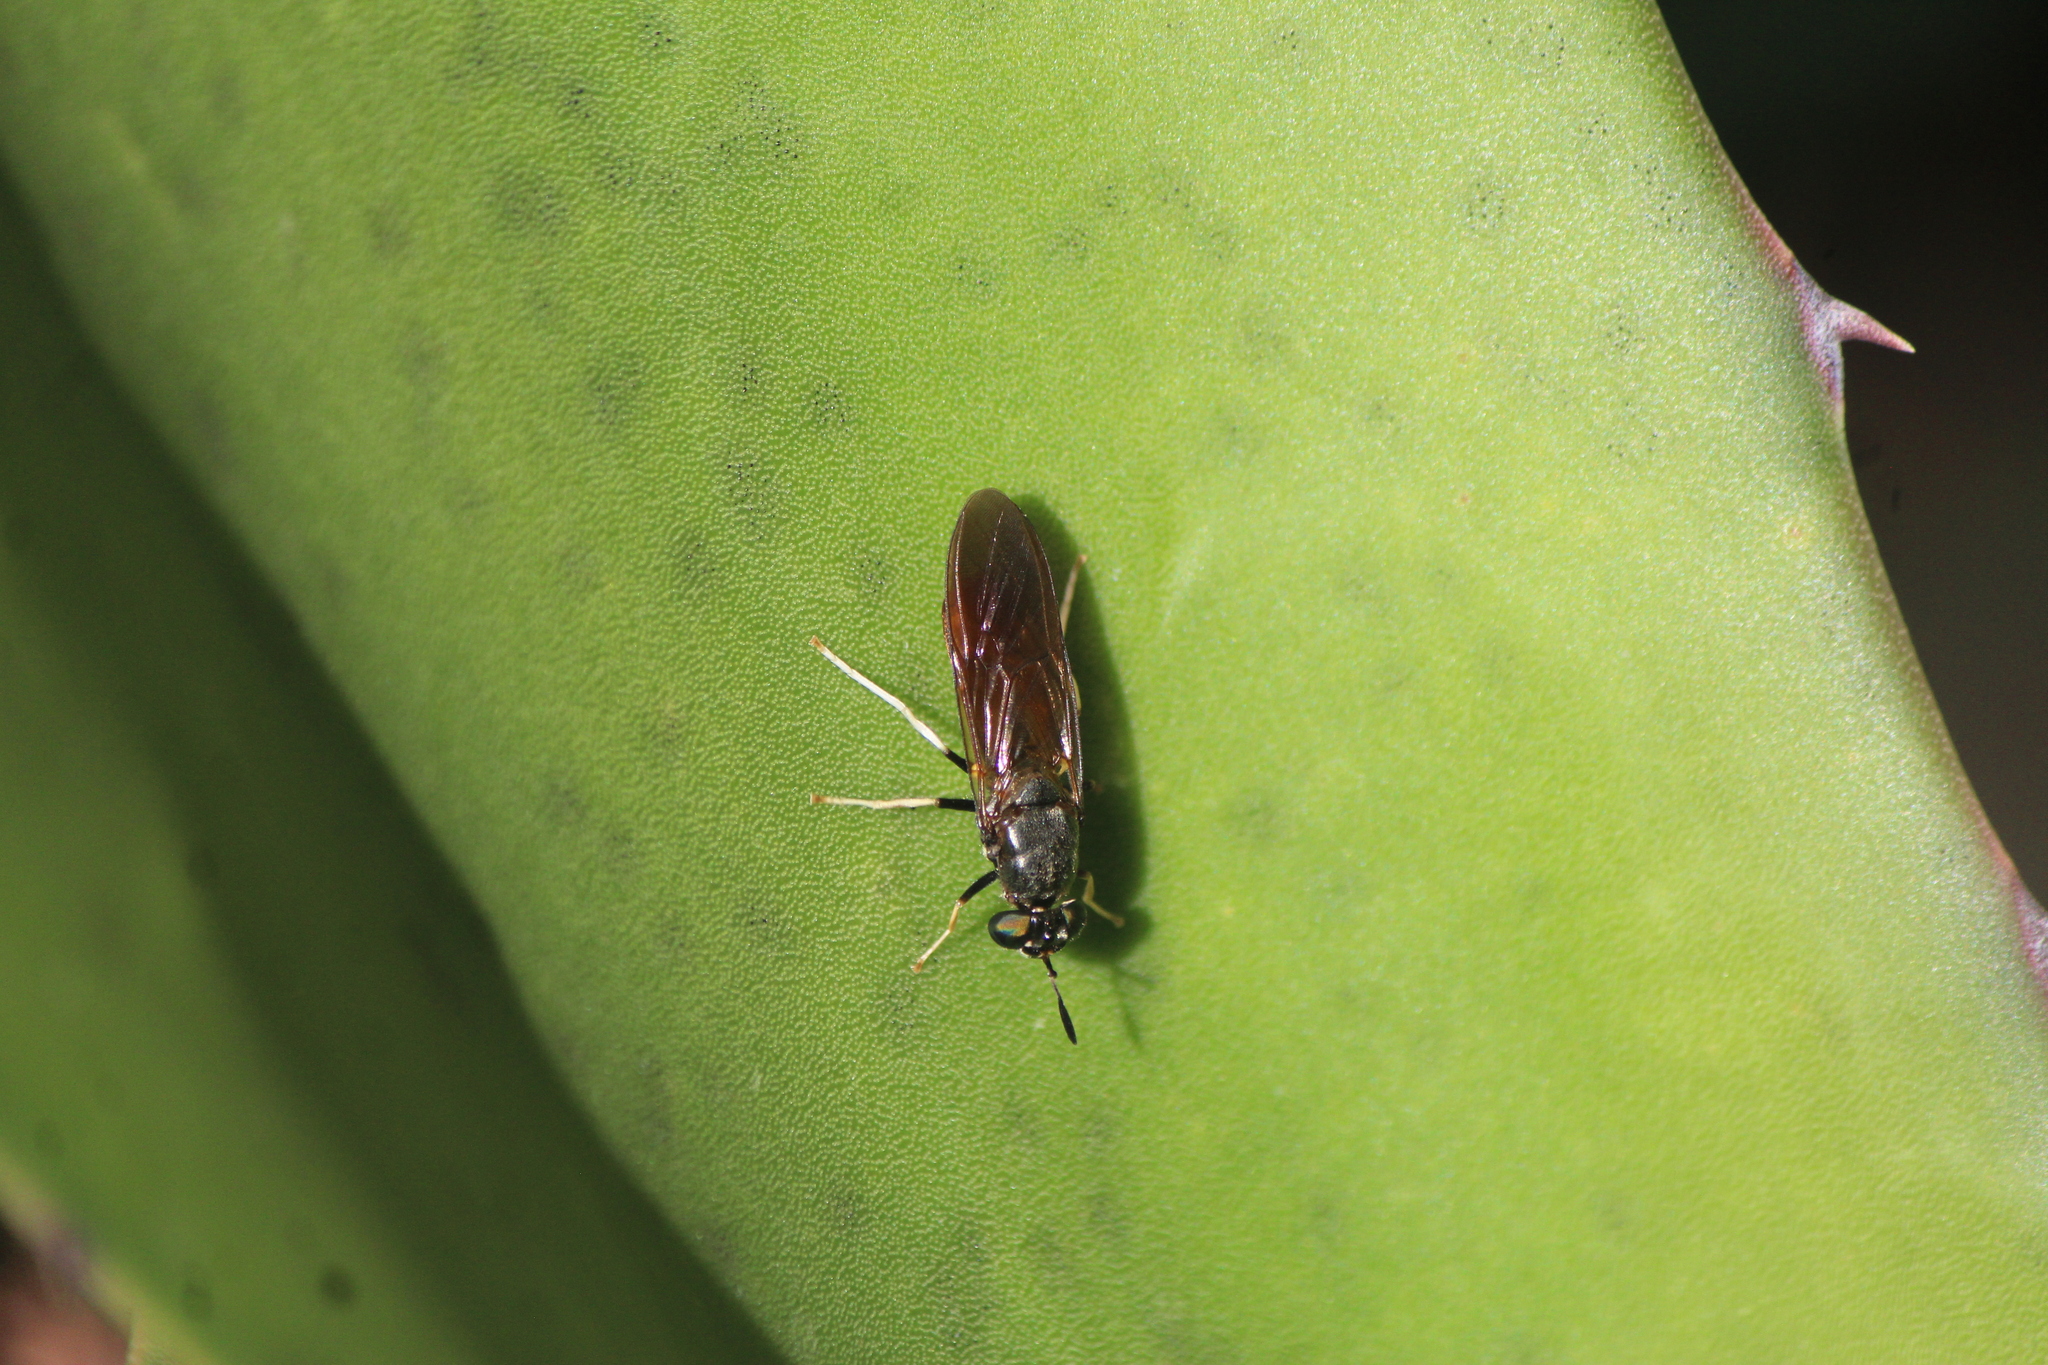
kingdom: Animalia
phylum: Arthropoda
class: Insecta
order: Diptera
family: Stratiomyidae
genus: Hermetia
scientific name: Hermetia lativentris
